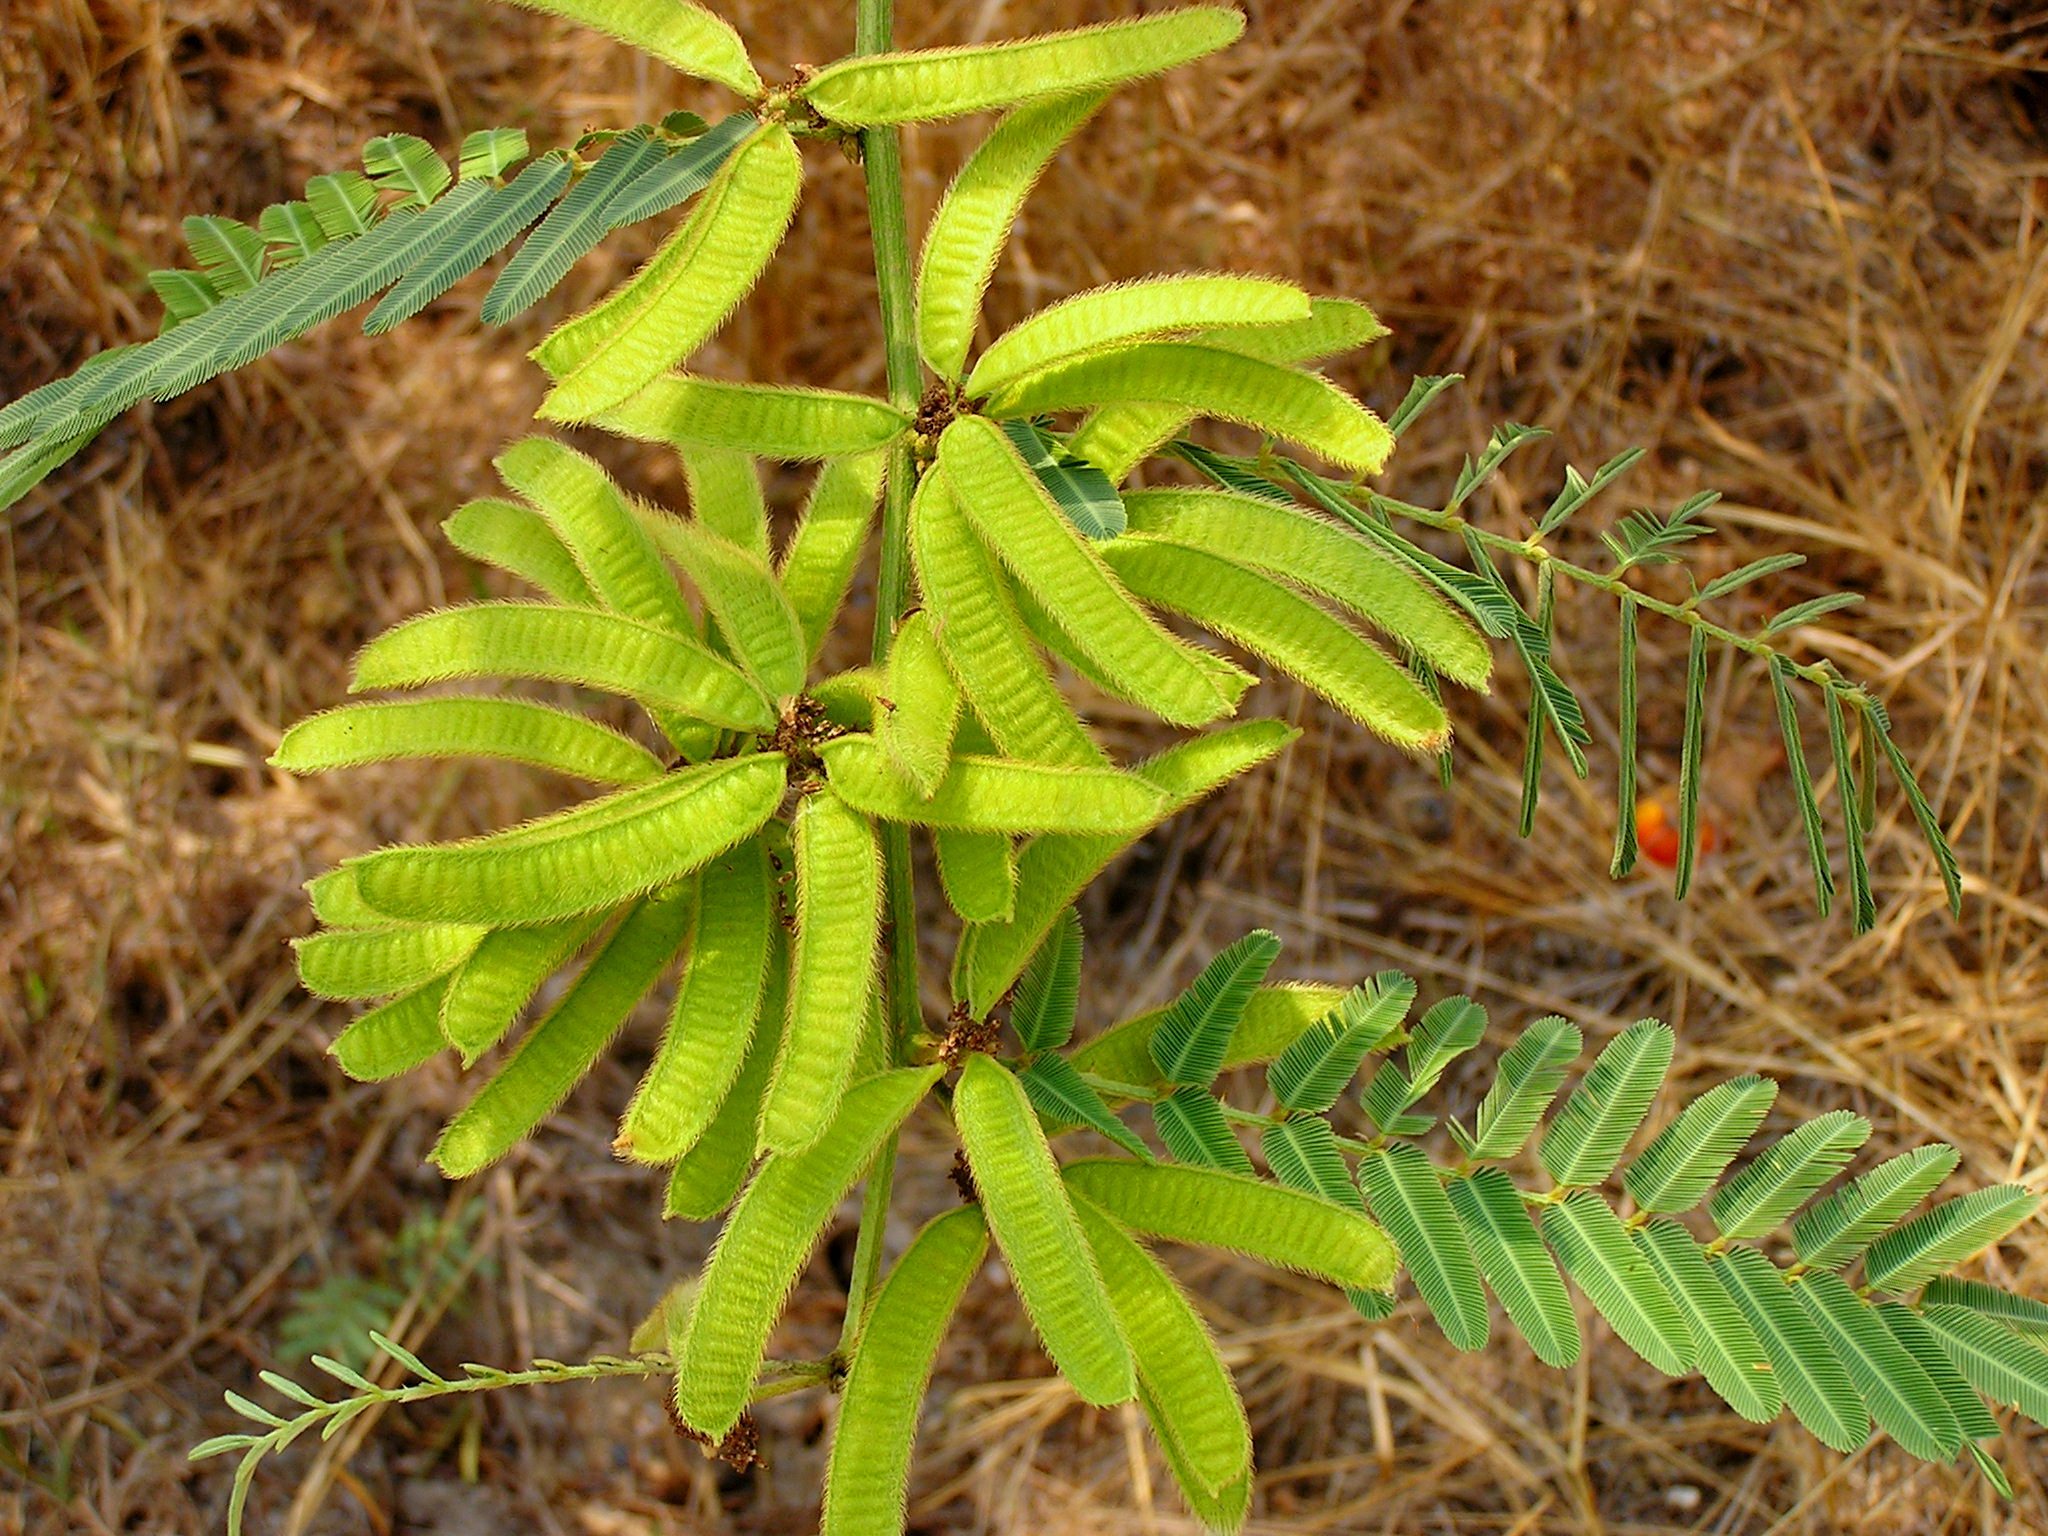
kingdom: Plantae
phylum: Tracheophyta
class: Magnoliopsida
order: Fabales
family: Fabaceae
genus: Mimosa
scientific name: Mimosa pigra
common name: Black mimosa
